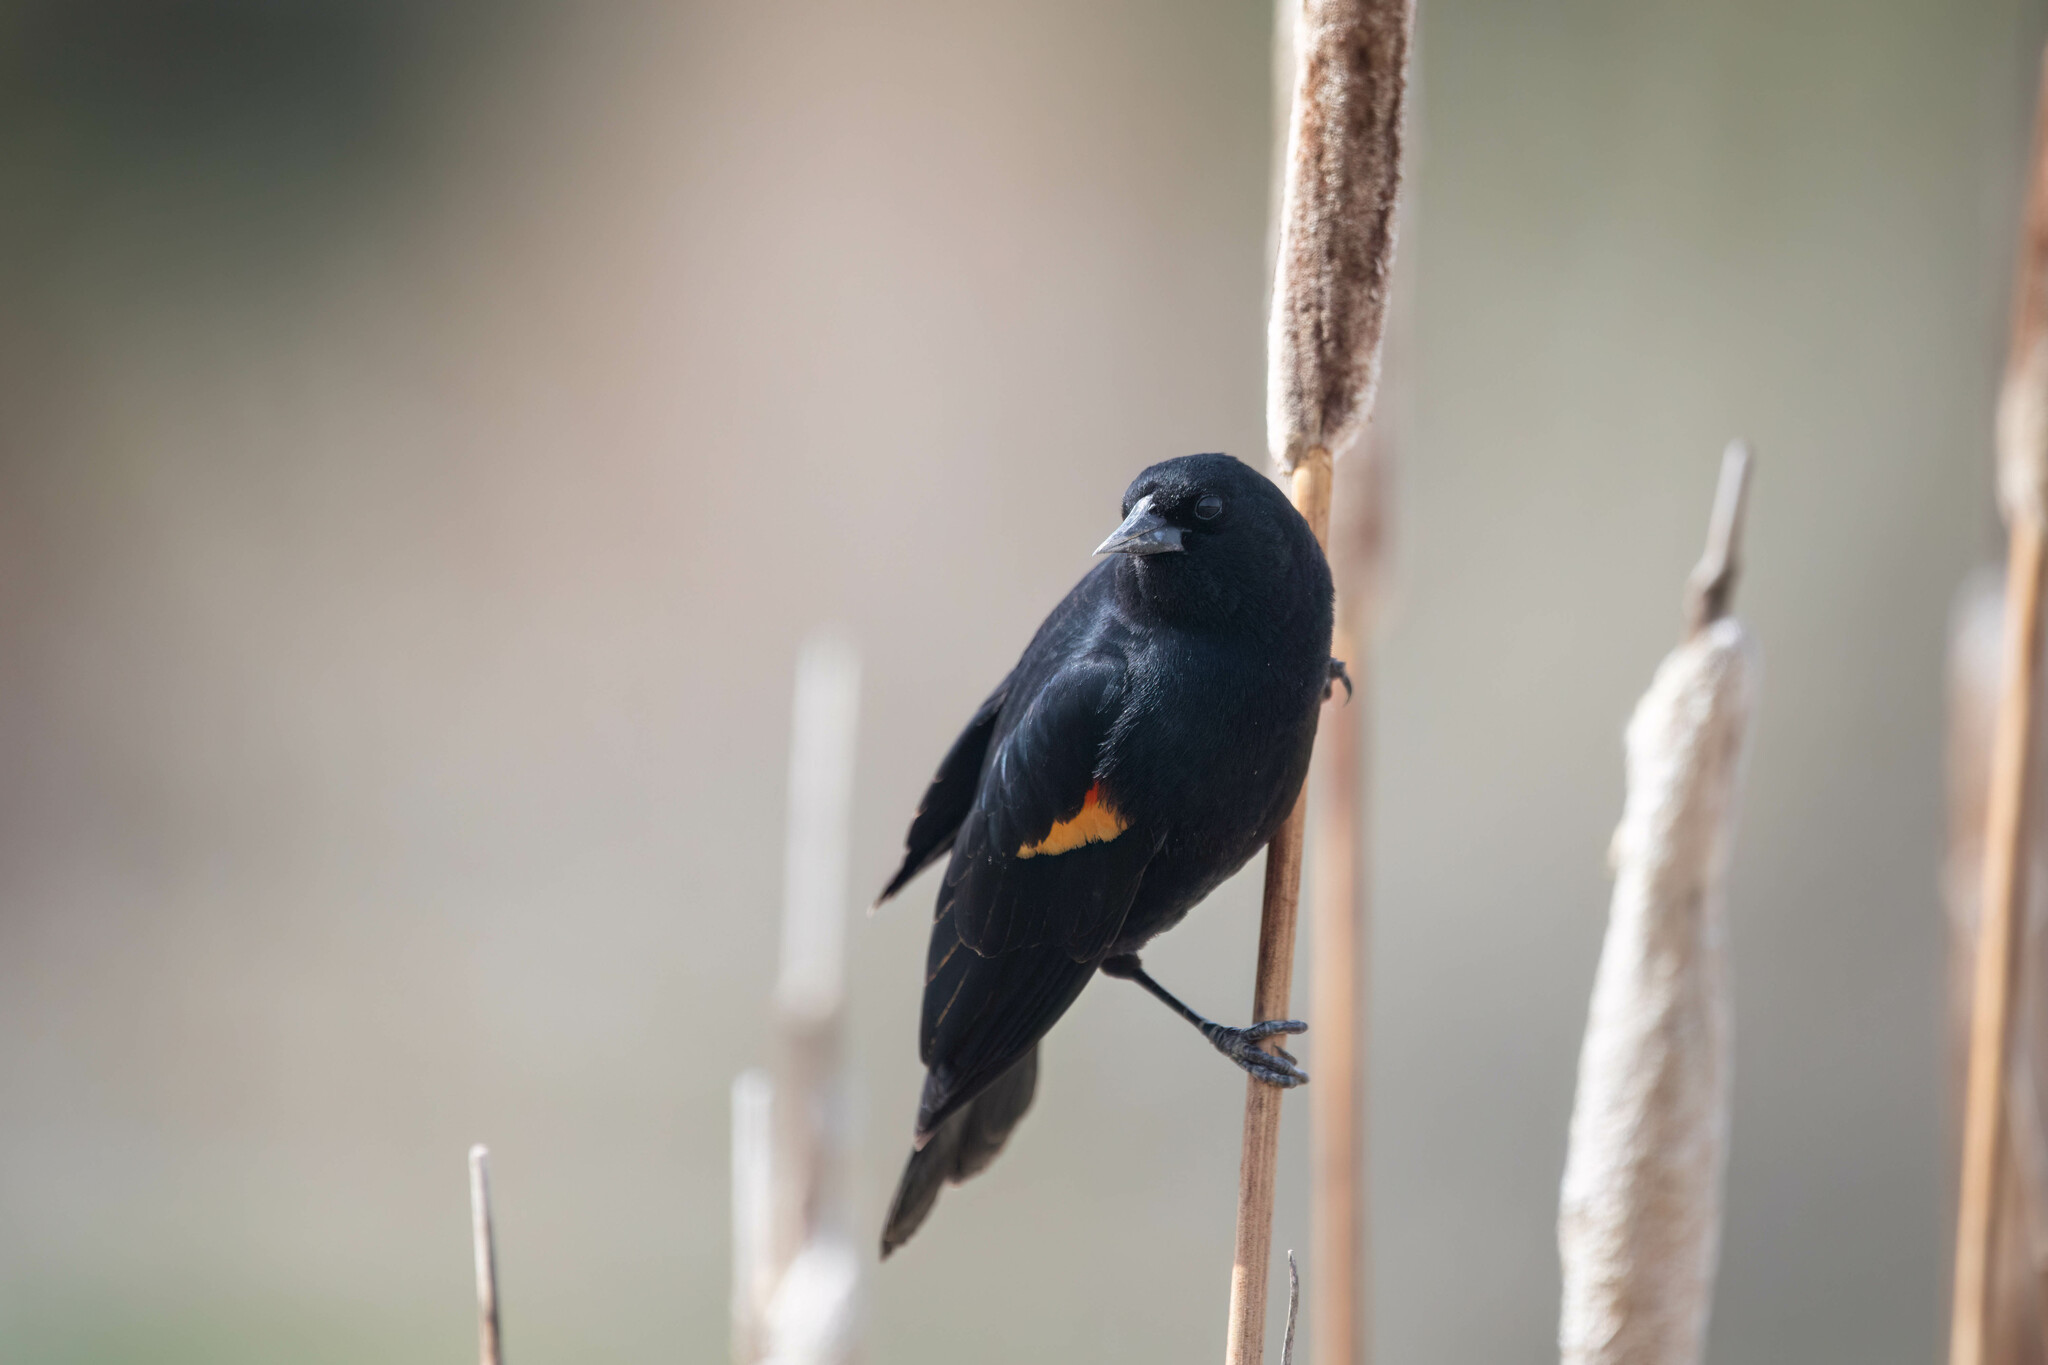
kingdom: Animalia
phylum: Chordata
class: Aves
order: Passeriformes
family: Icteridae
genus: Agelaius
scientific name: Agelaius phoeniceus
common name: Red-winged blackbird
